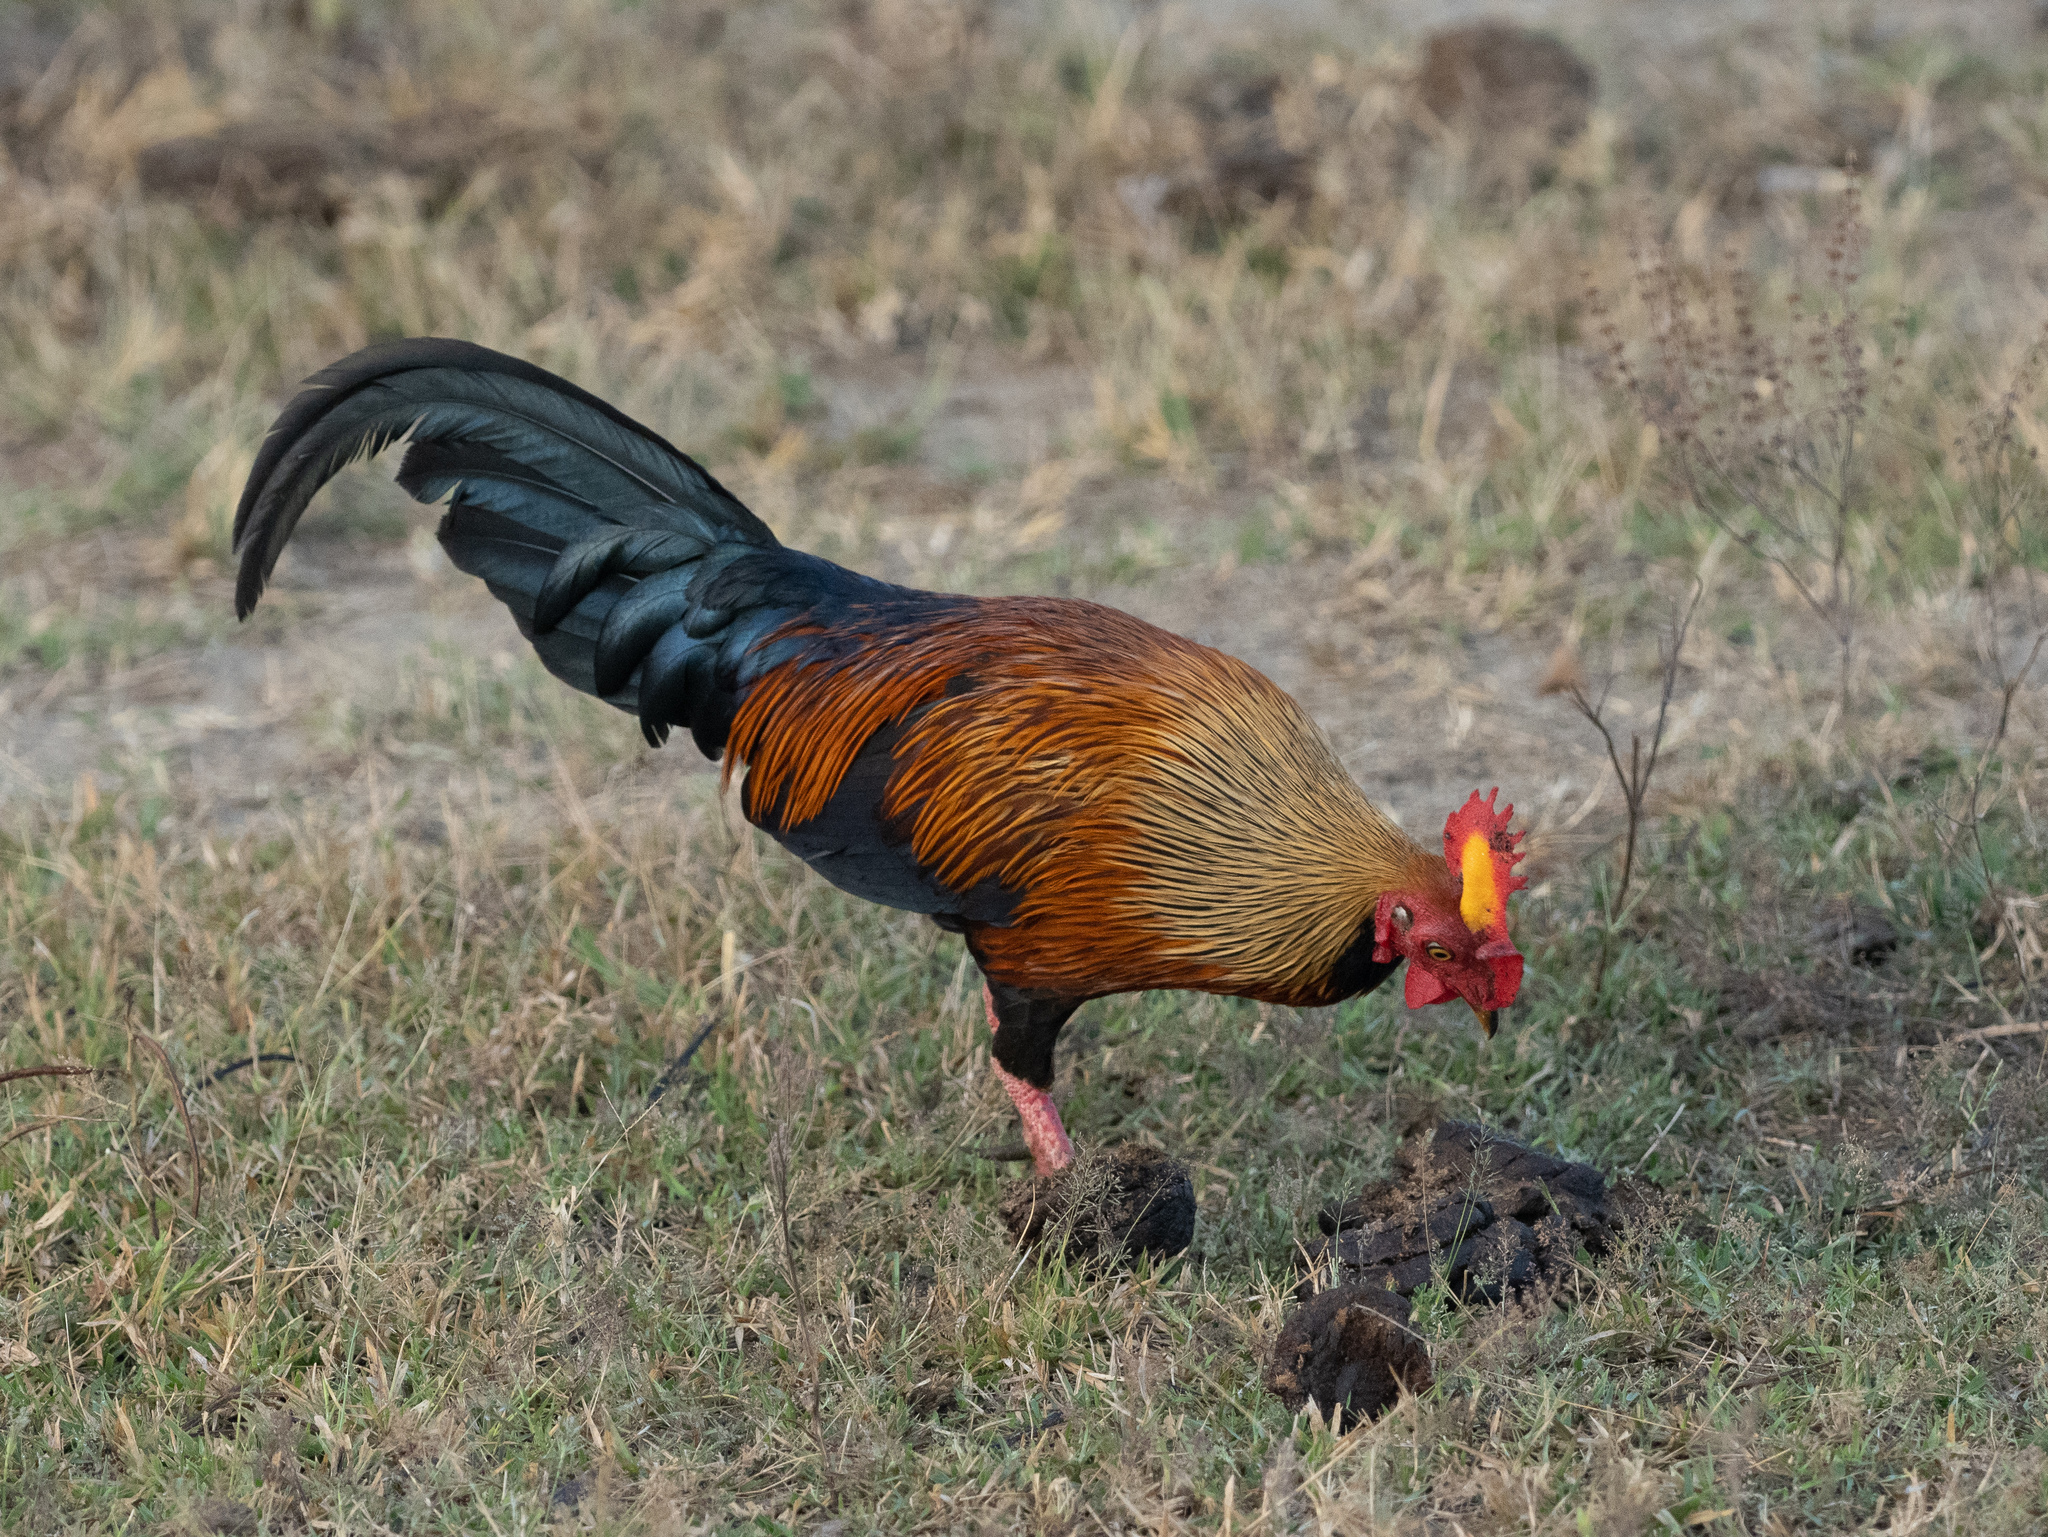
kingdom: Animalia
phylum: Chordata
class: Aves
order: Galliformes
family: Phasianidae
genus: Gallus
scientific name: Gallus lafayettii
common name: Sri lanka junglefowl
